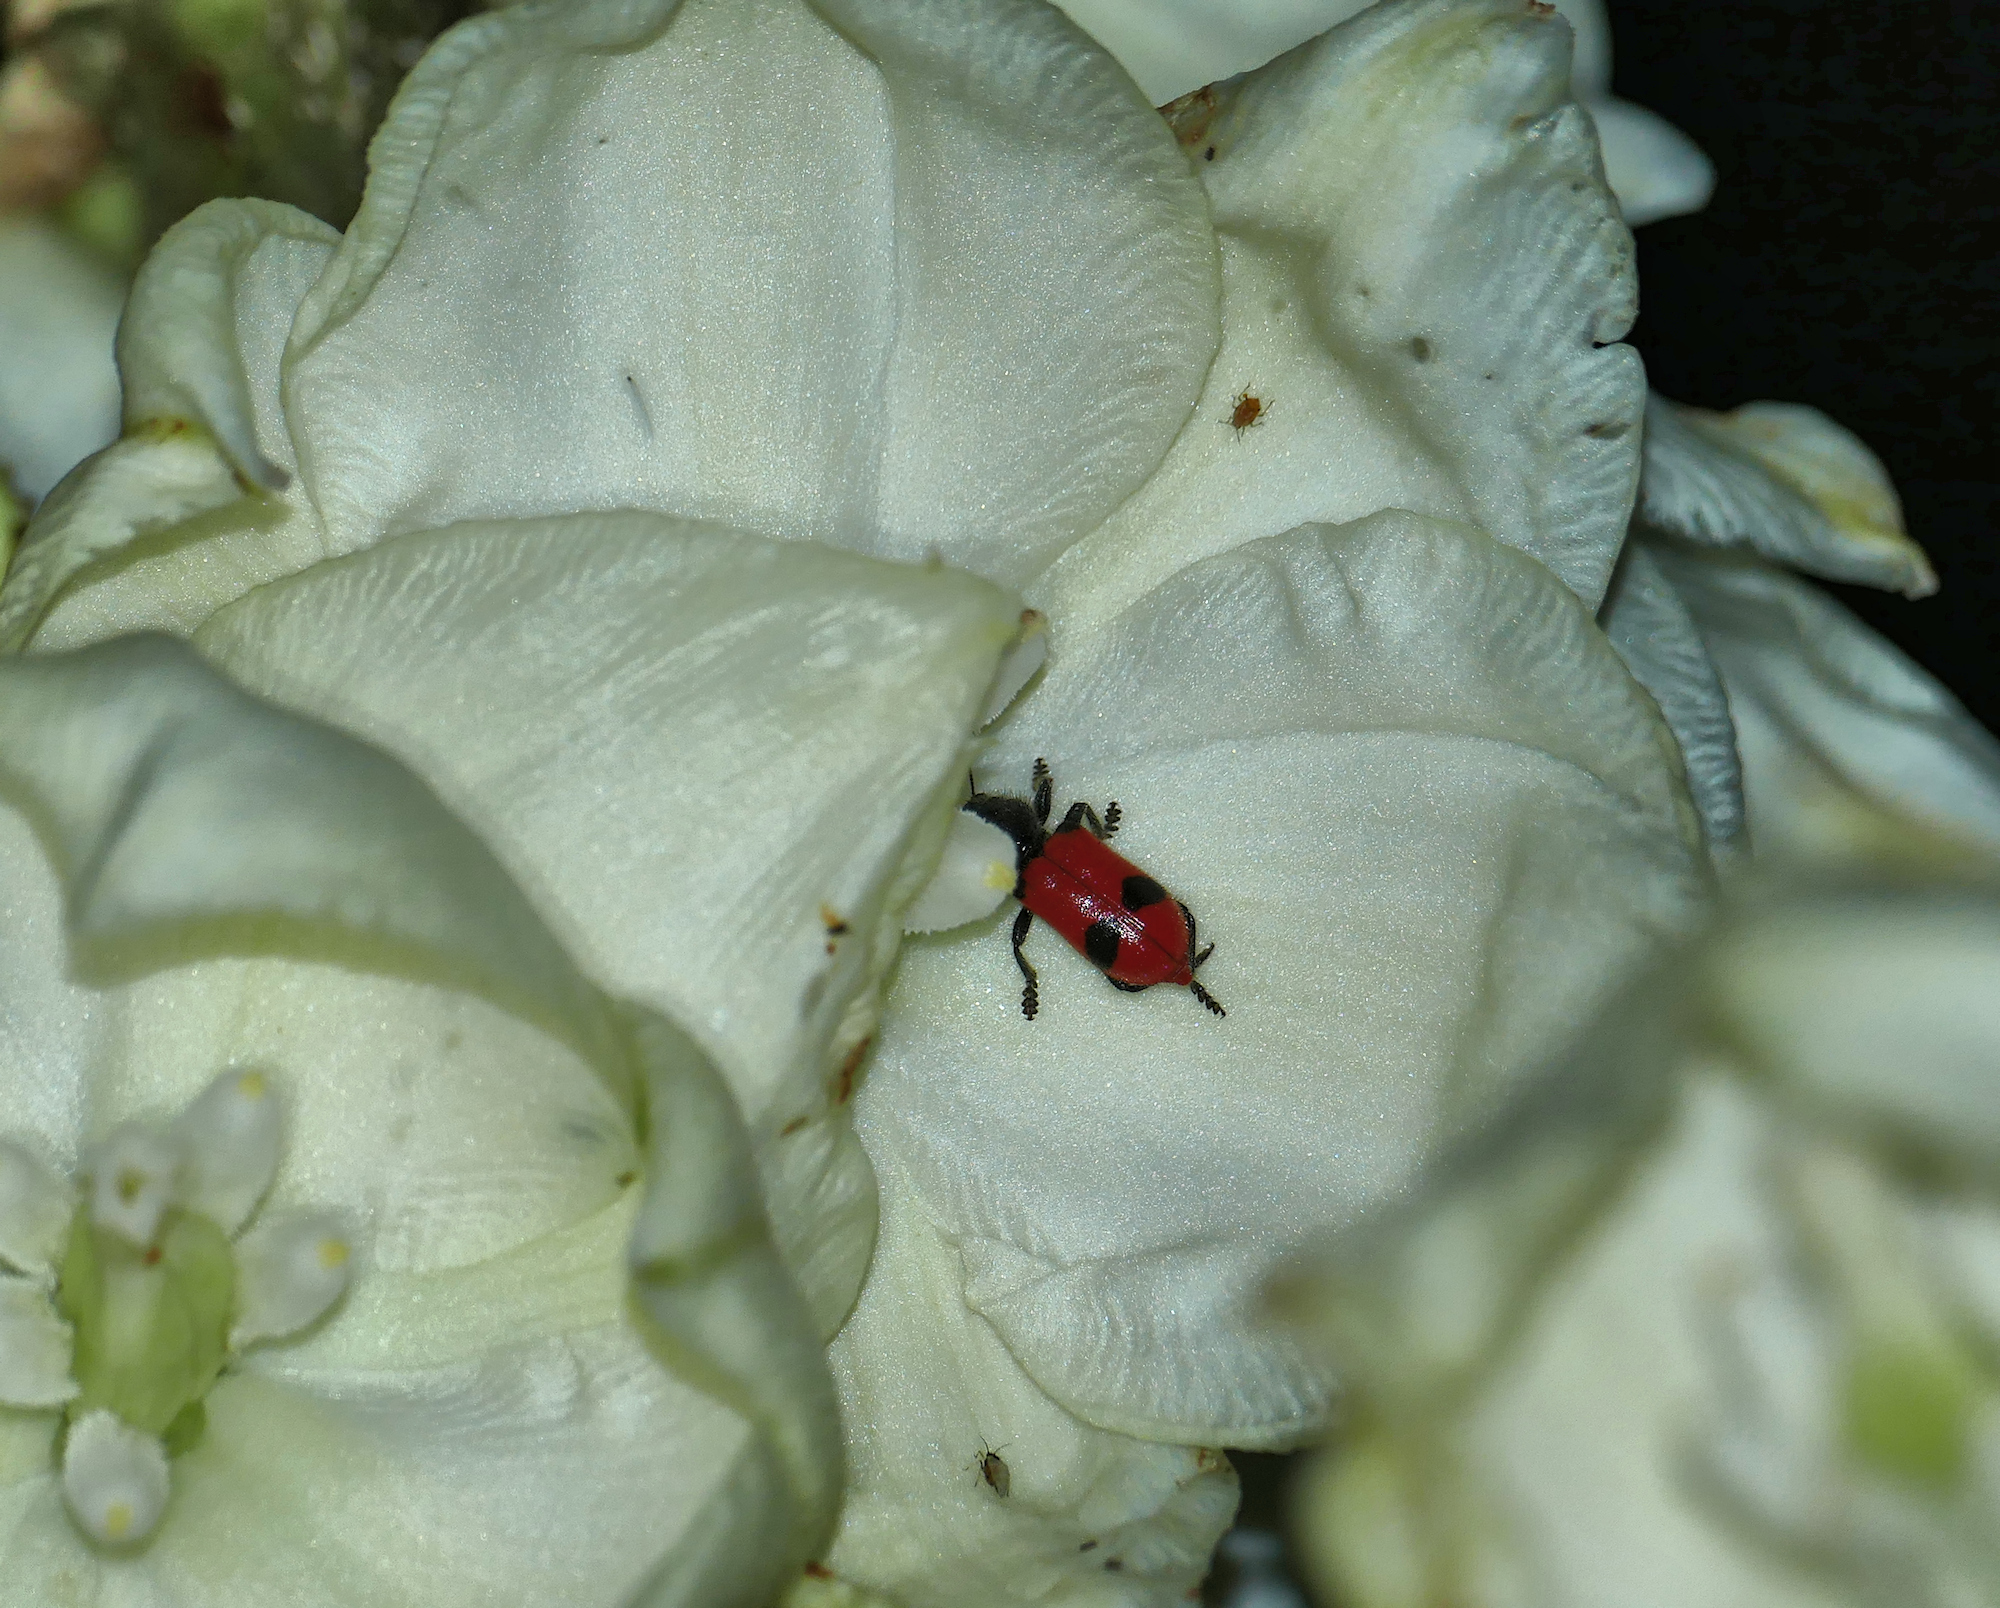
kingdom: Animalia
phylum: Arthropoda
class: Insecta
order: Coleoptera
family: Cleridae
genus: Enoclerus
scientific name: Enoclerus
